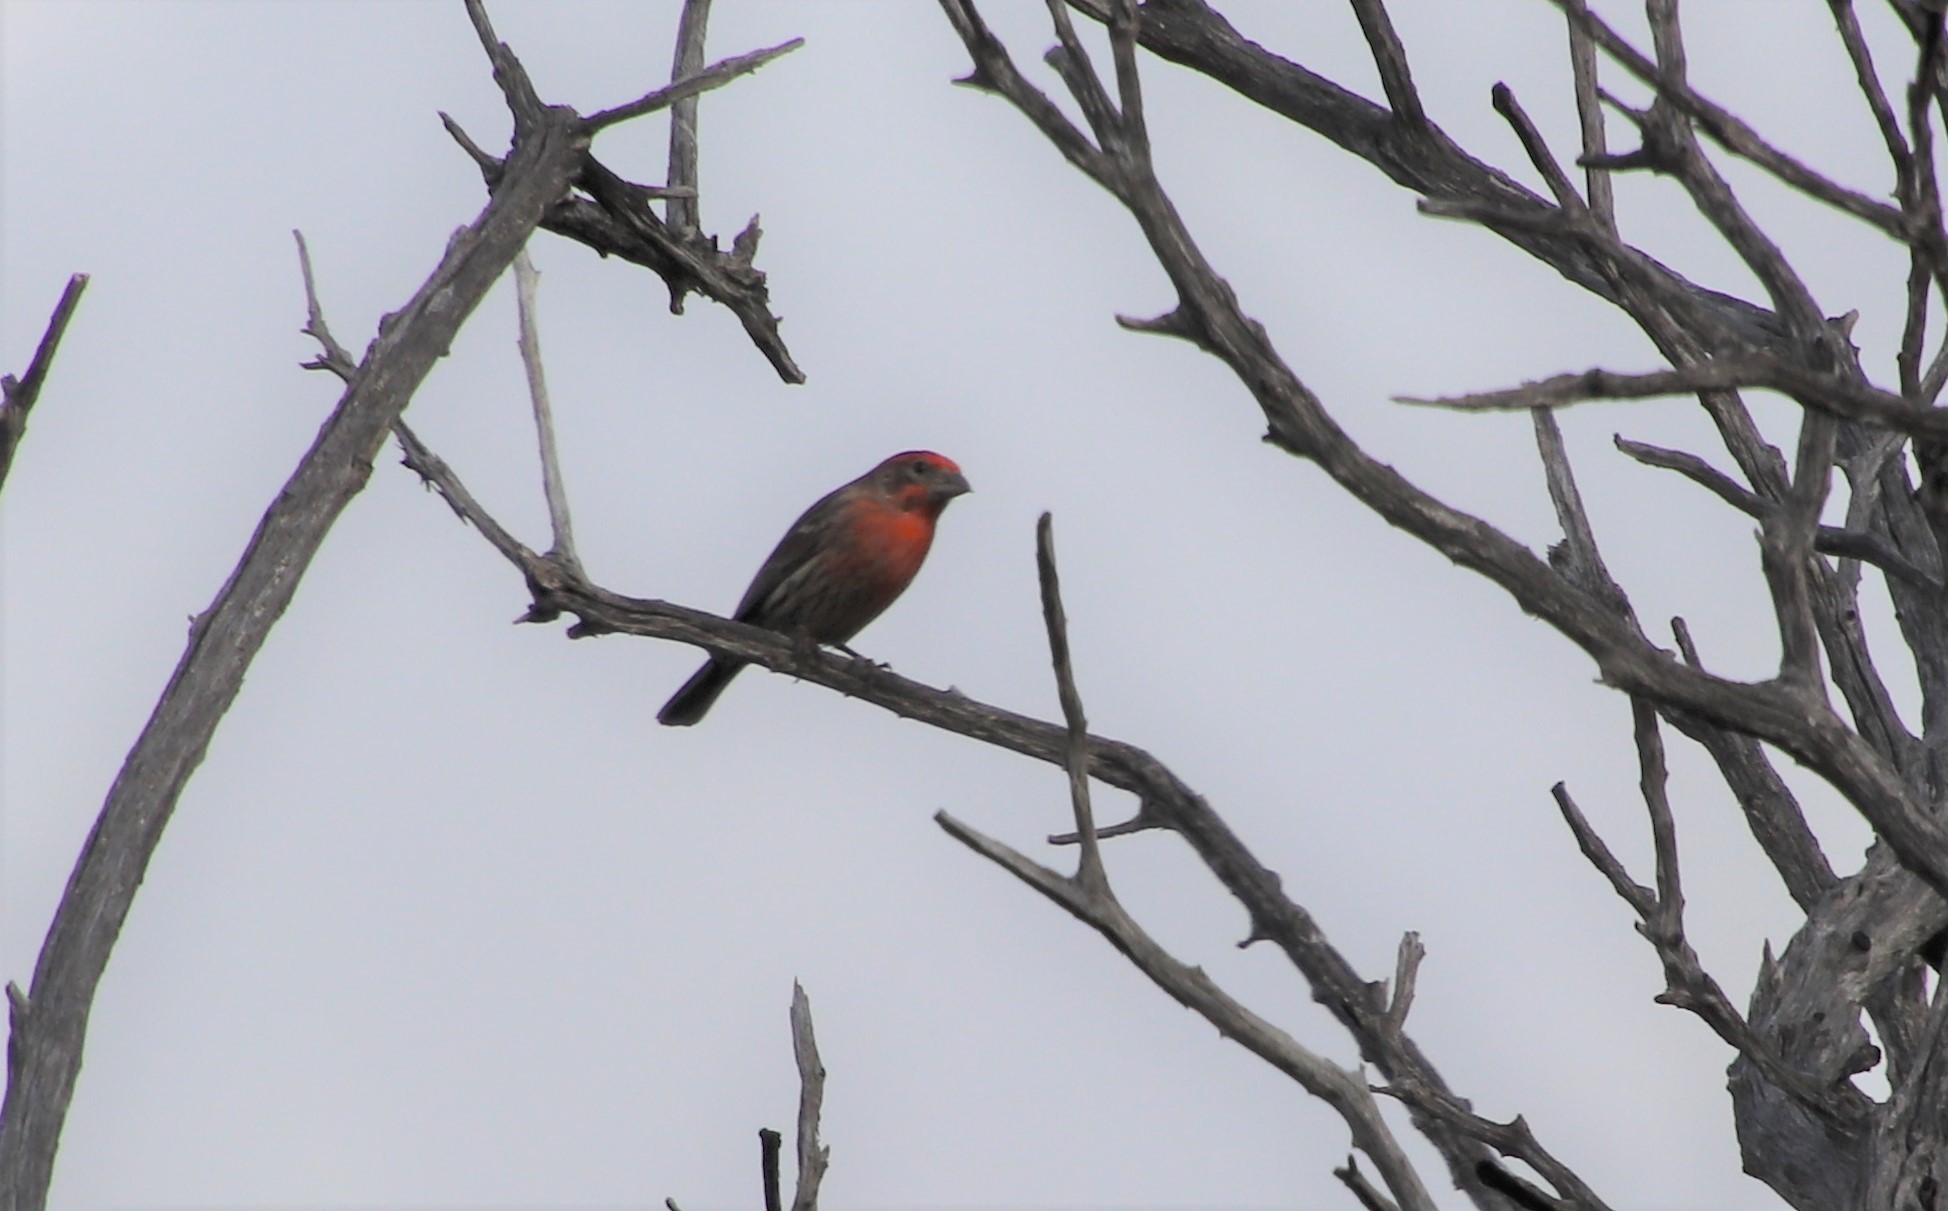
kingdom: Animalia
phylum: Chordata
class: Aves
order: Passeriformes
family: Fringillidae
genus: Haemorhous
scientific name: Haemorhous mexicanus
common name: House finch
